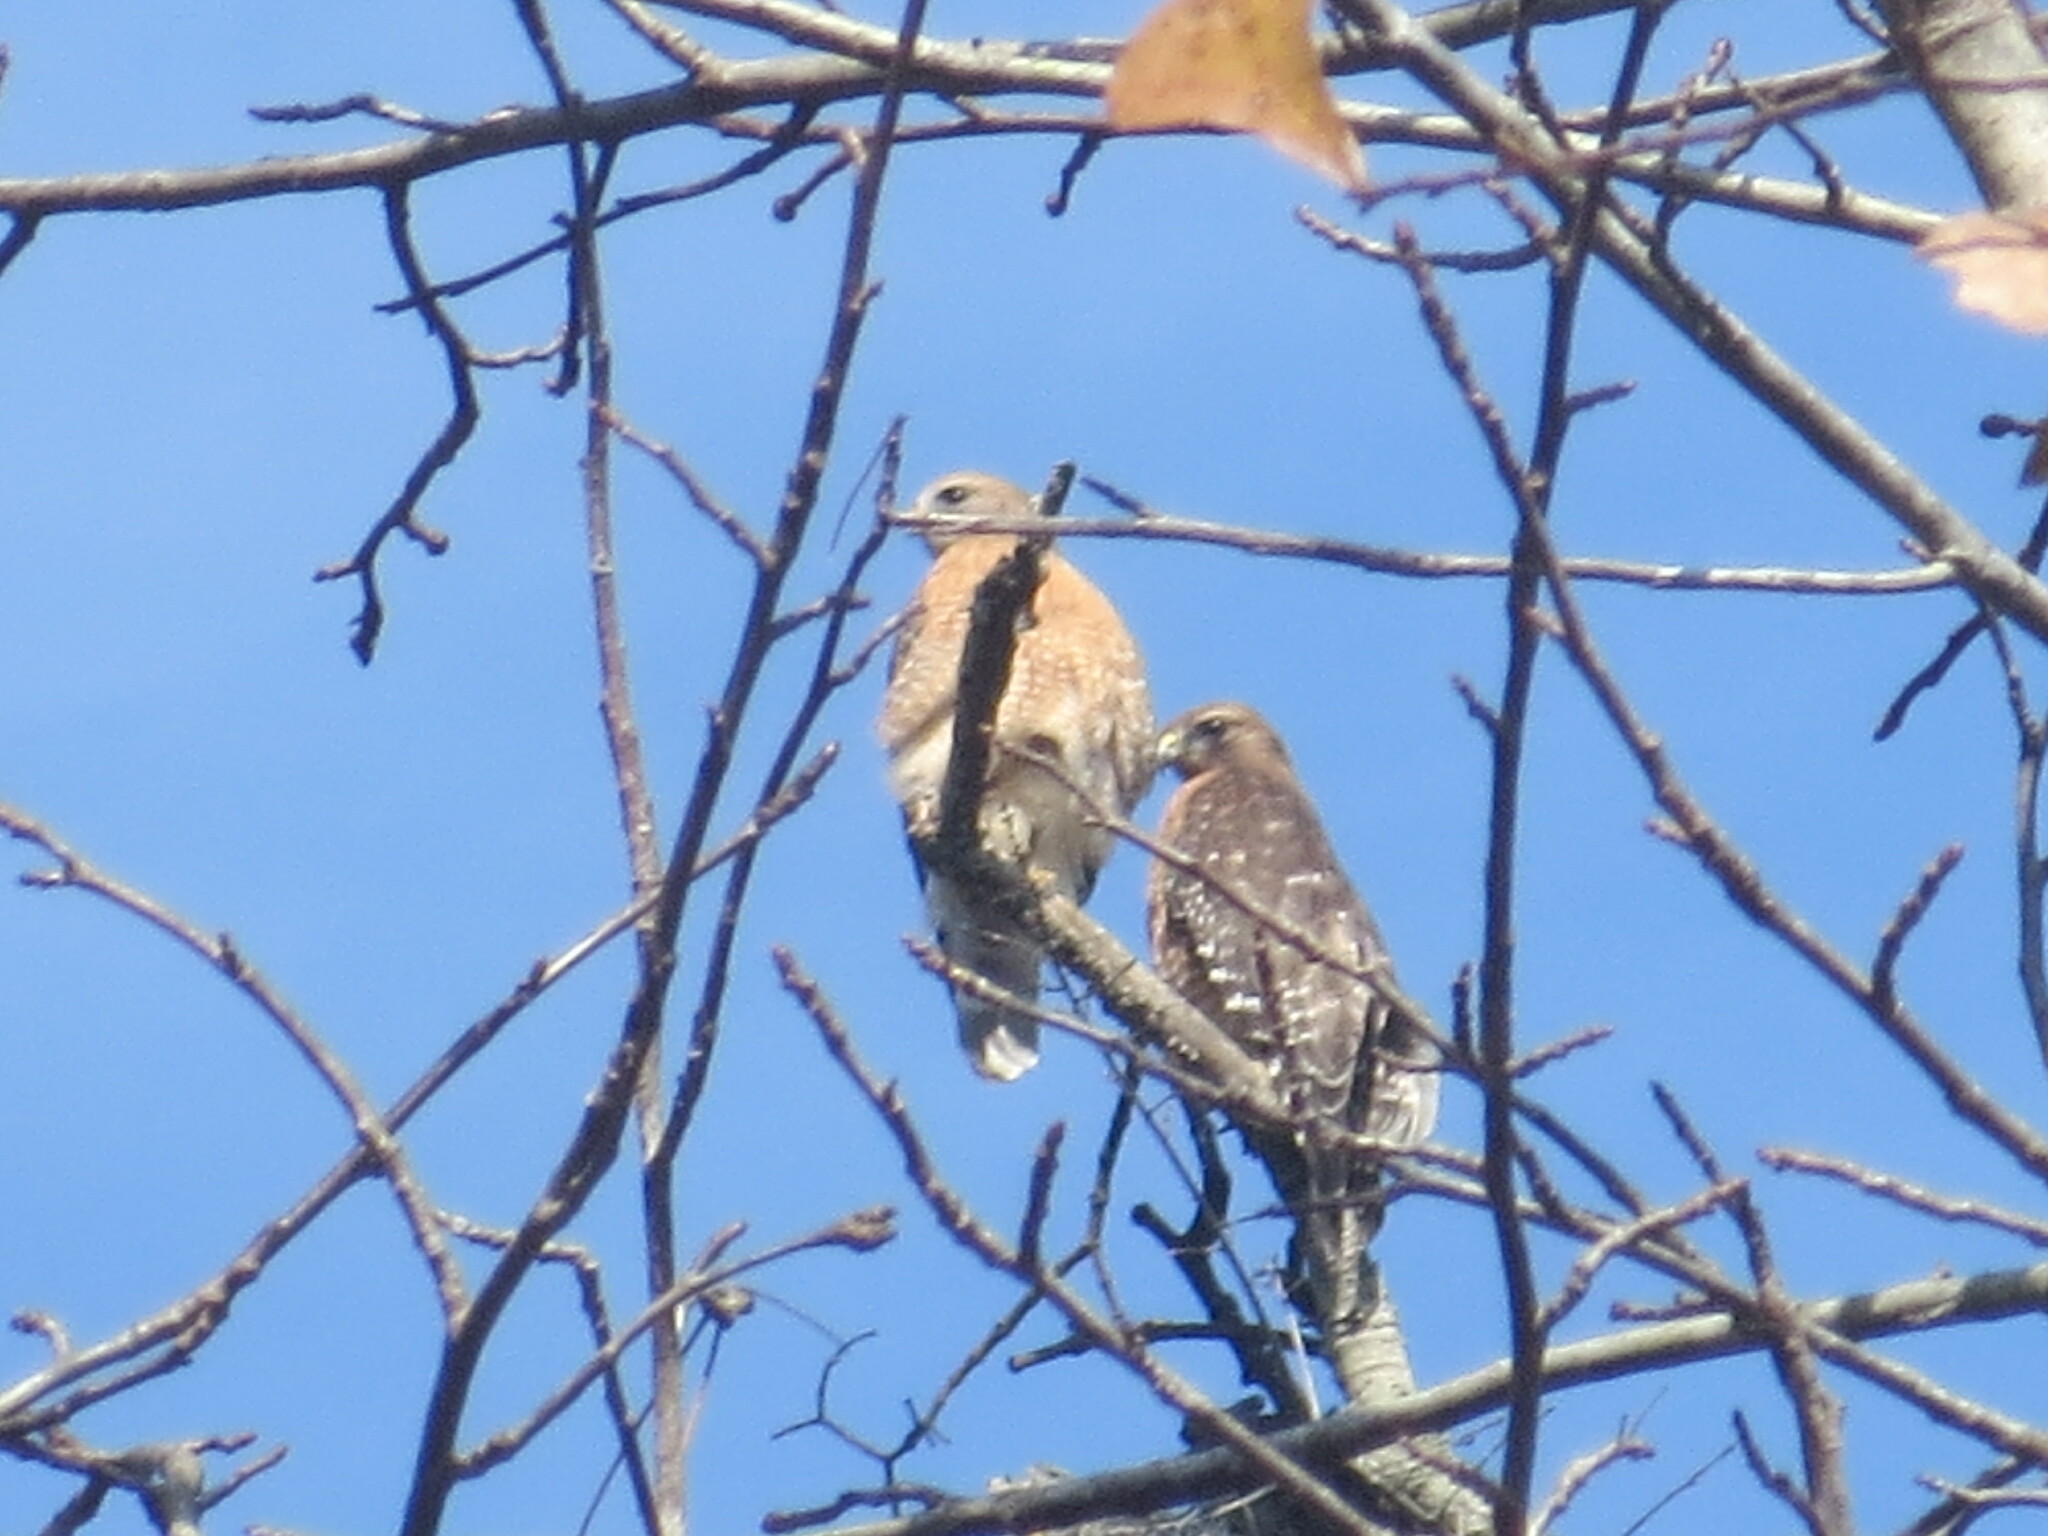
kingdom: Animalia
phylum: Chordata
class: Aves
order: Accipitriformes
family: Accipitridae
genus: Buteo
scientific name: Buteo lineatus
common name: Red-shouldered hawk
